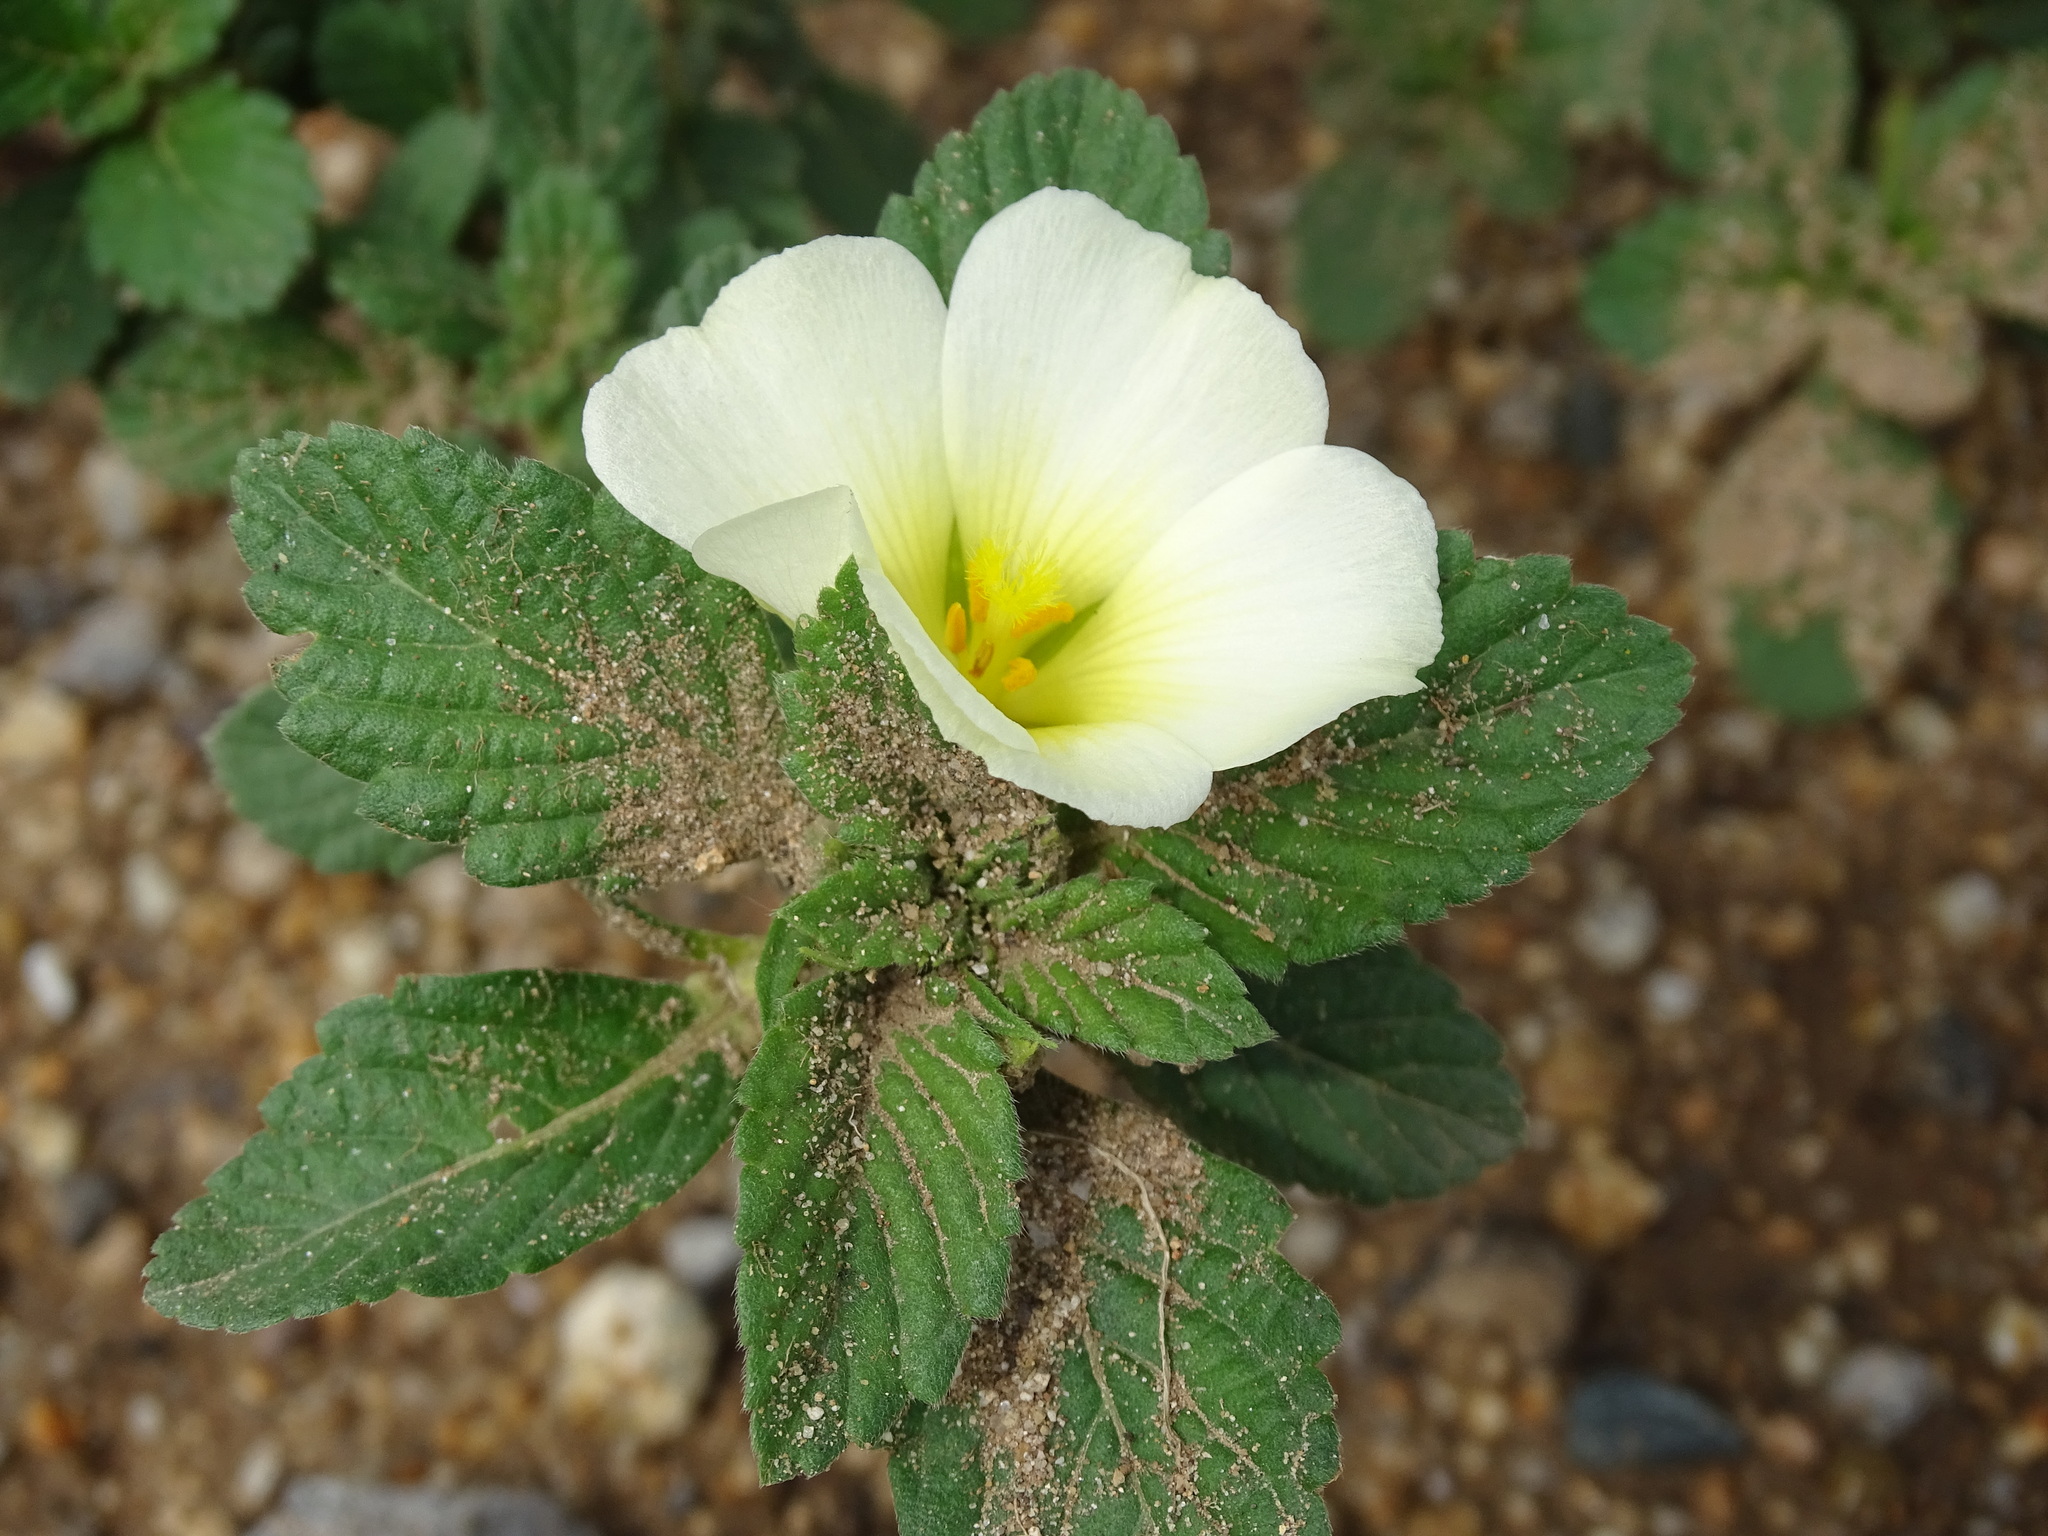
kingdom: Plantae
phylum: Tracheophyta
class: Magnoliopsida
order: Malpighiales
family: Turneraceae
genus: Turnera
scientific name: Turnera velutina
